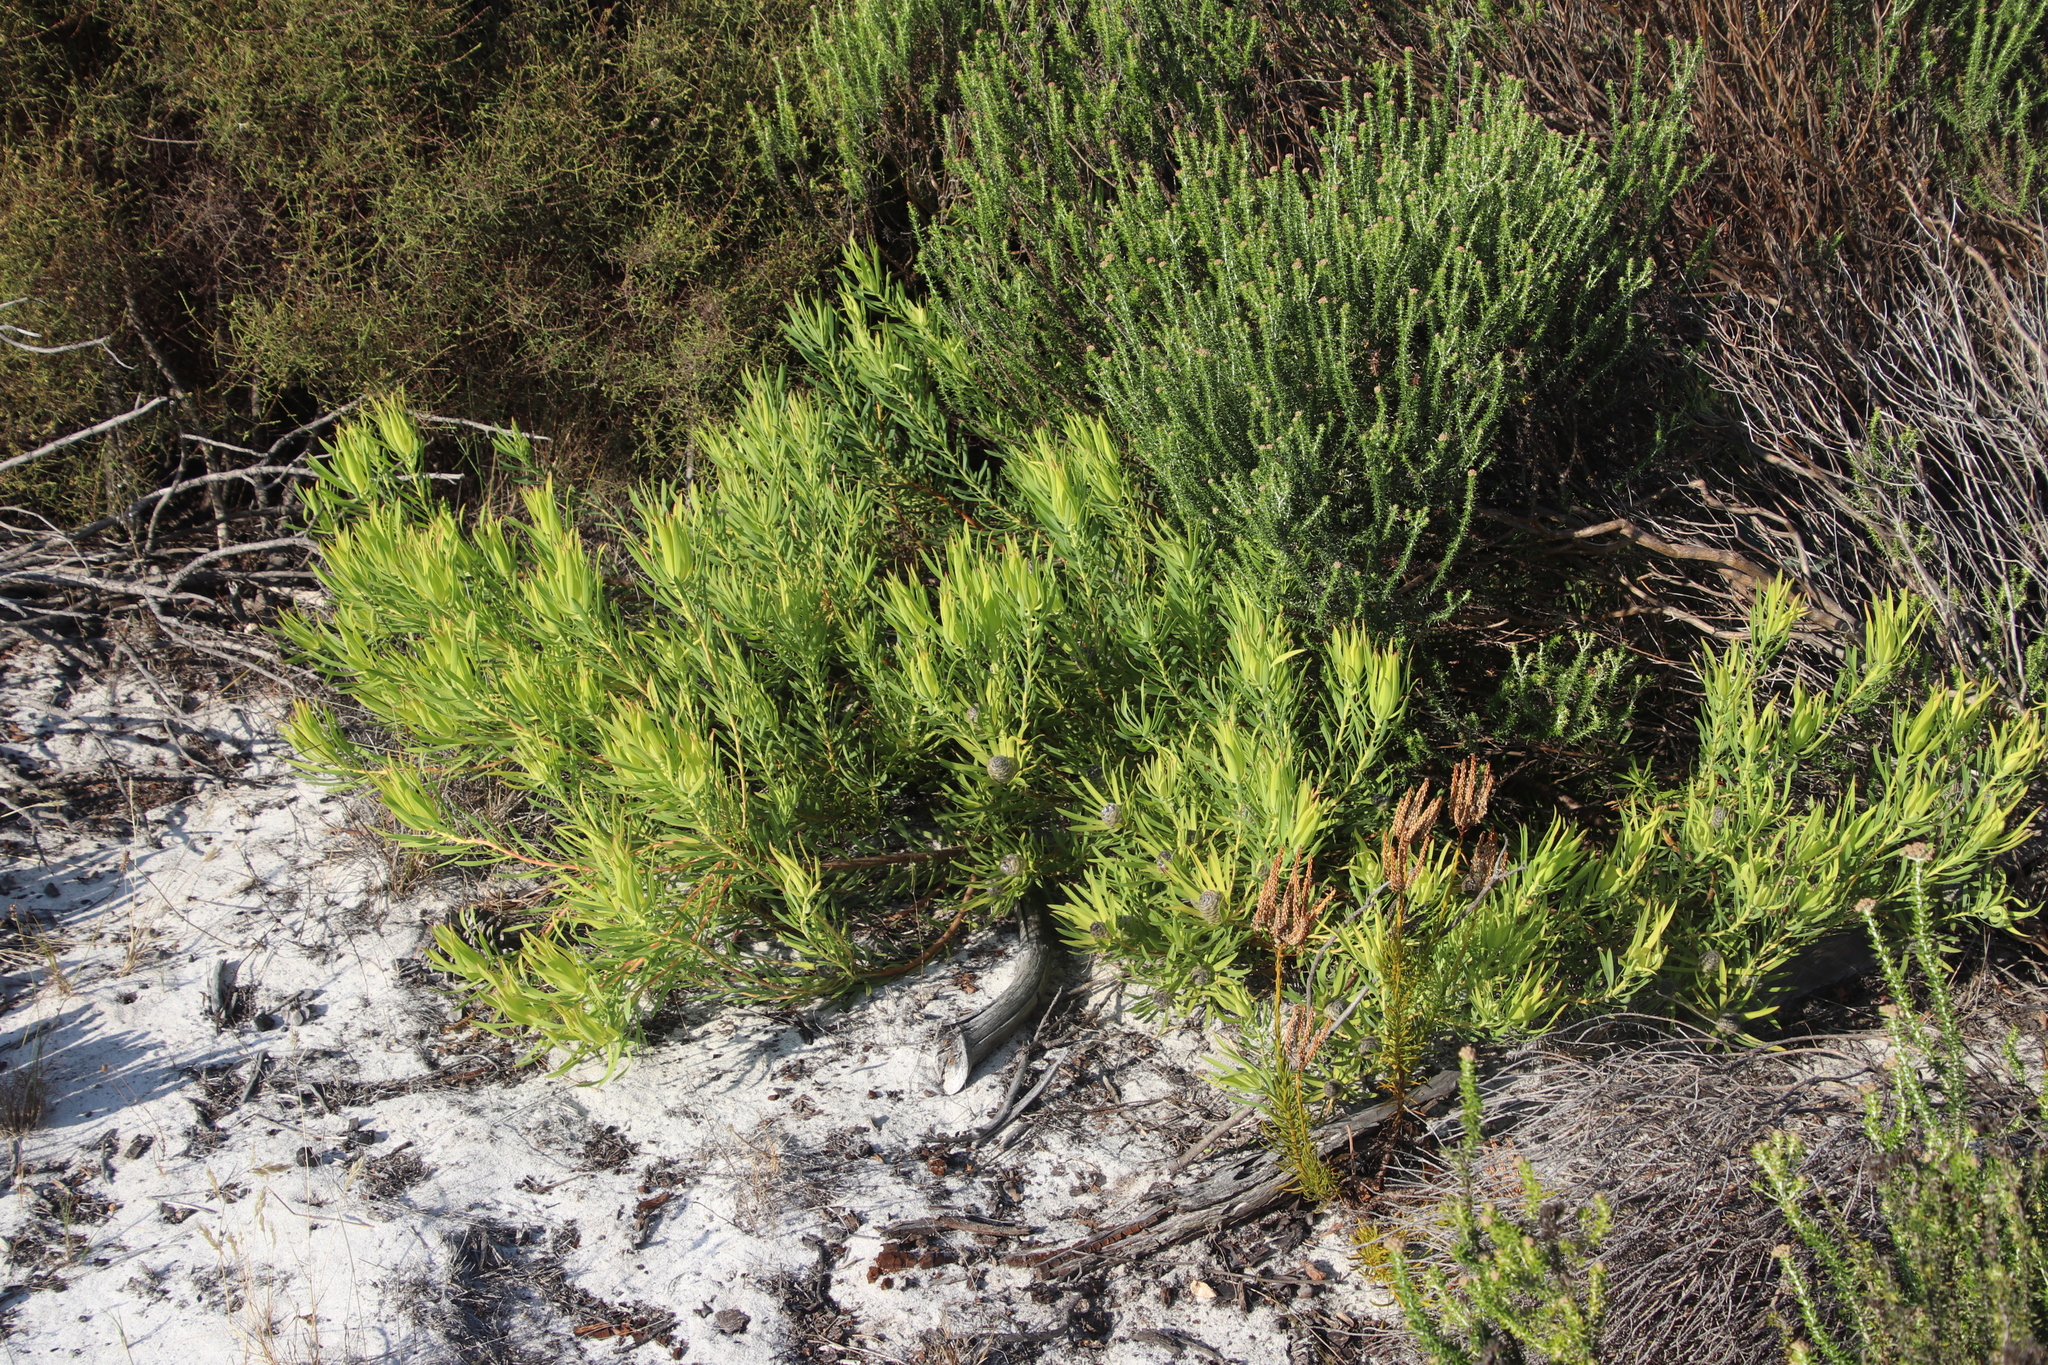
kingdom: Plantae
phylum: Tracheophyta
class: Magnoliopsida
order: Proteales
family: Proteaceae
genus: Leucadendron
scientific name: Leucadendron salignum
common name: Common sunshine conebush
